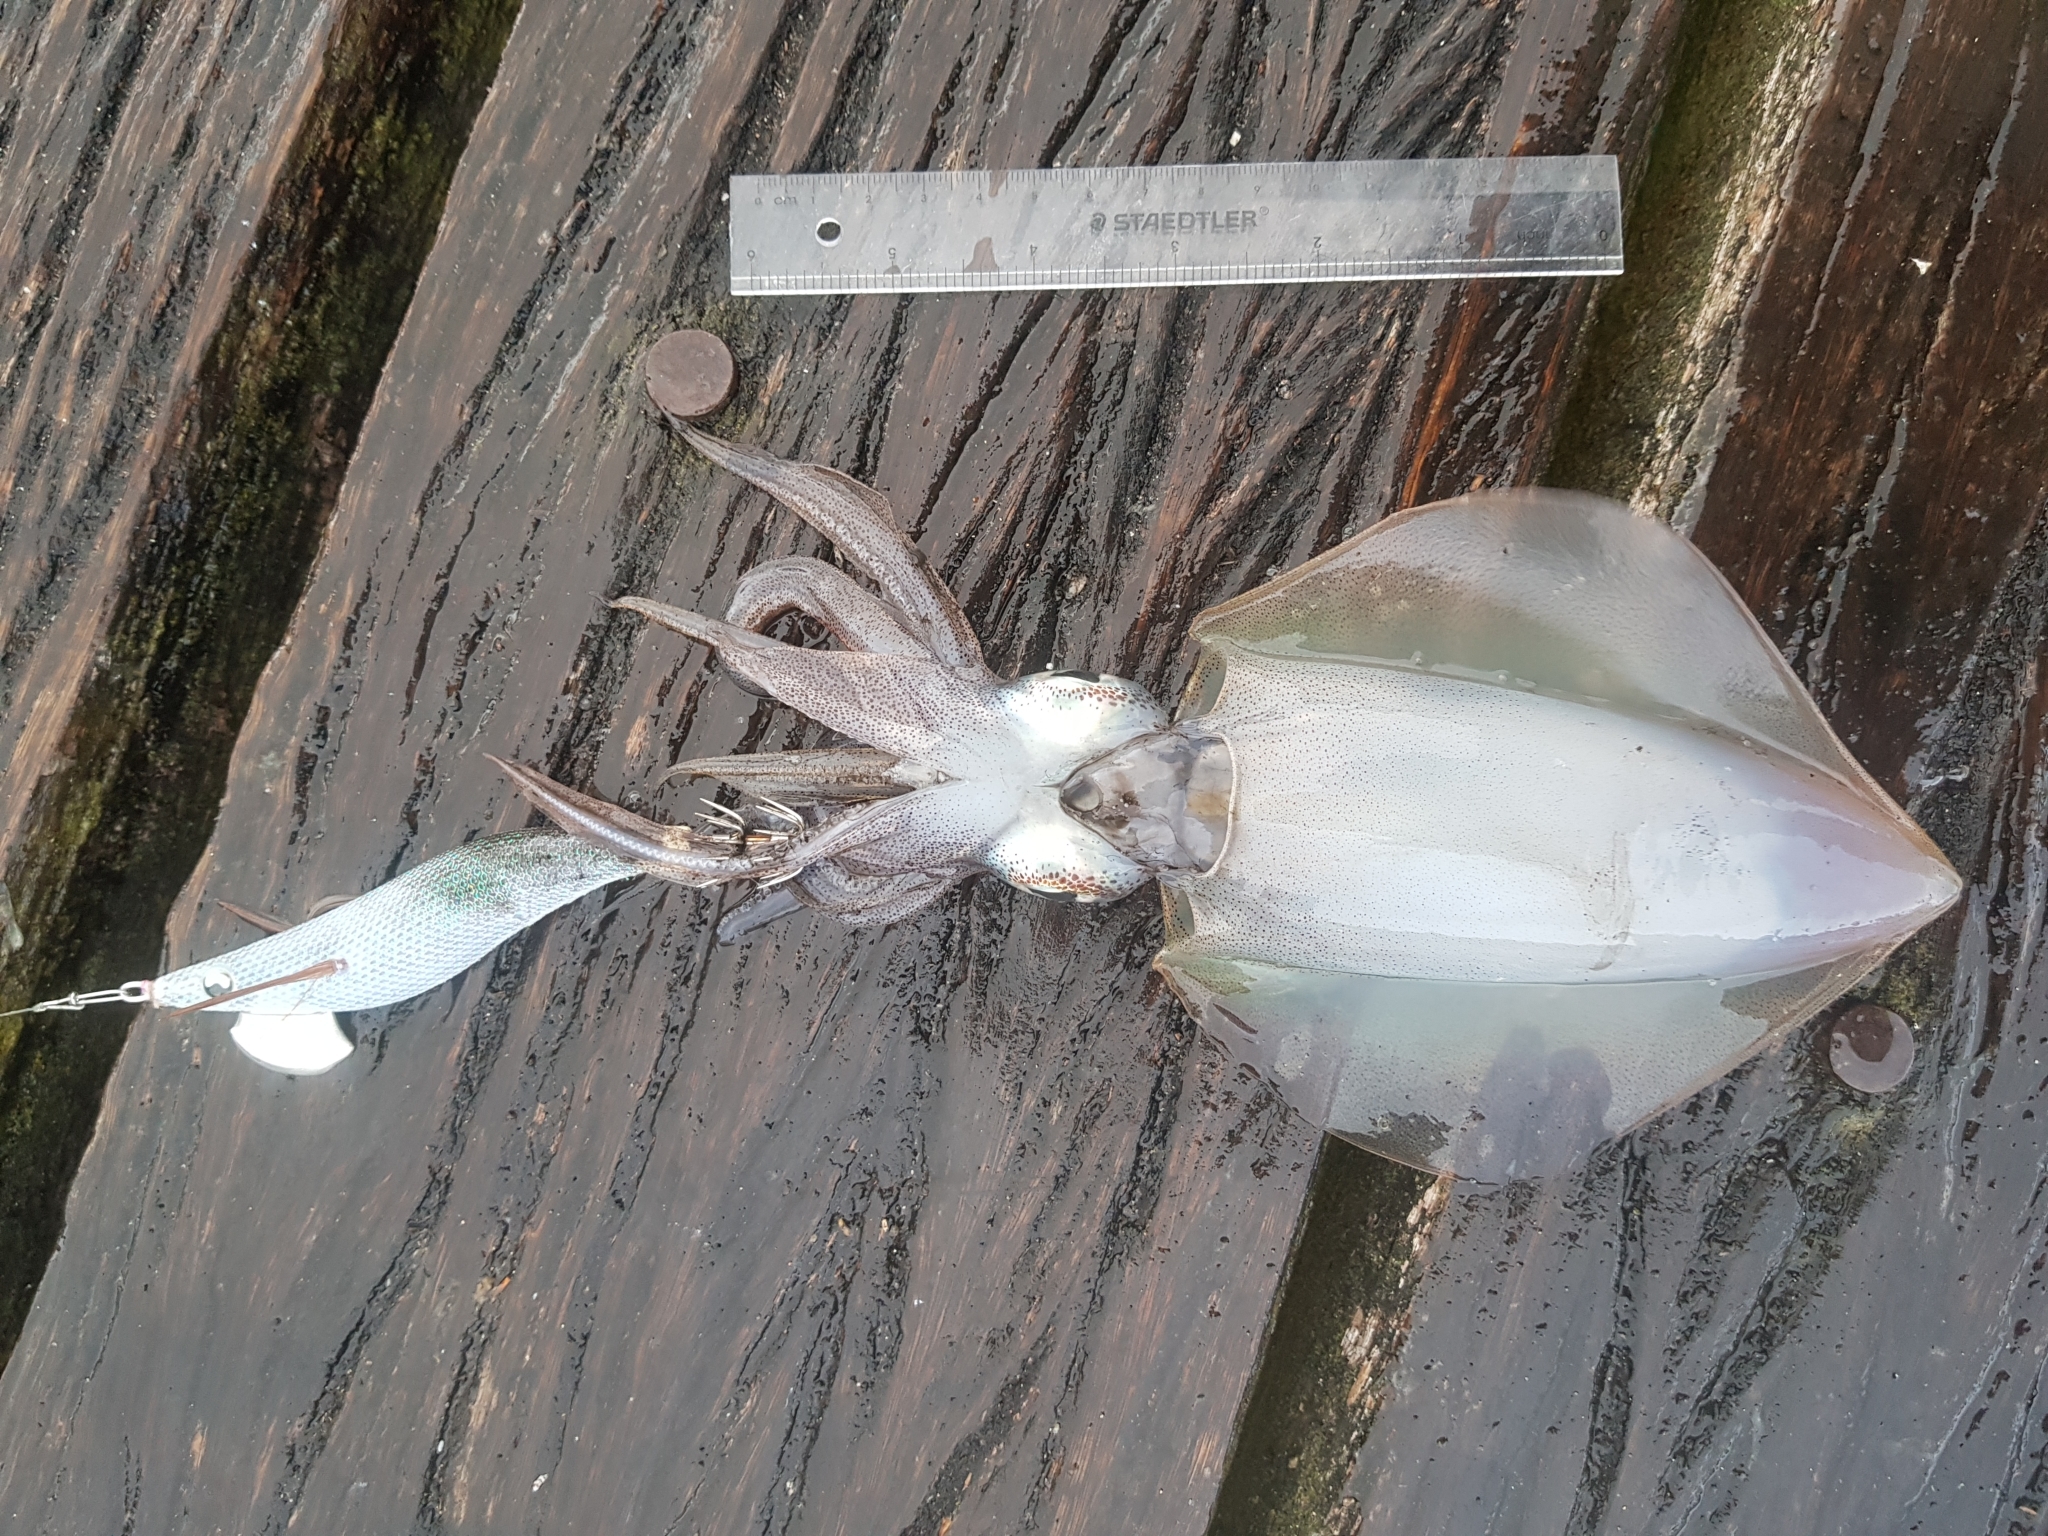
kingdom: Animalia
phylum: Mollusca
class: Cephalopoda
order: Myopsida
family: Loliginidae
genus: Sepioteuthis
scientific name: Sepioteuthis australis
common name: Southern reef squid
